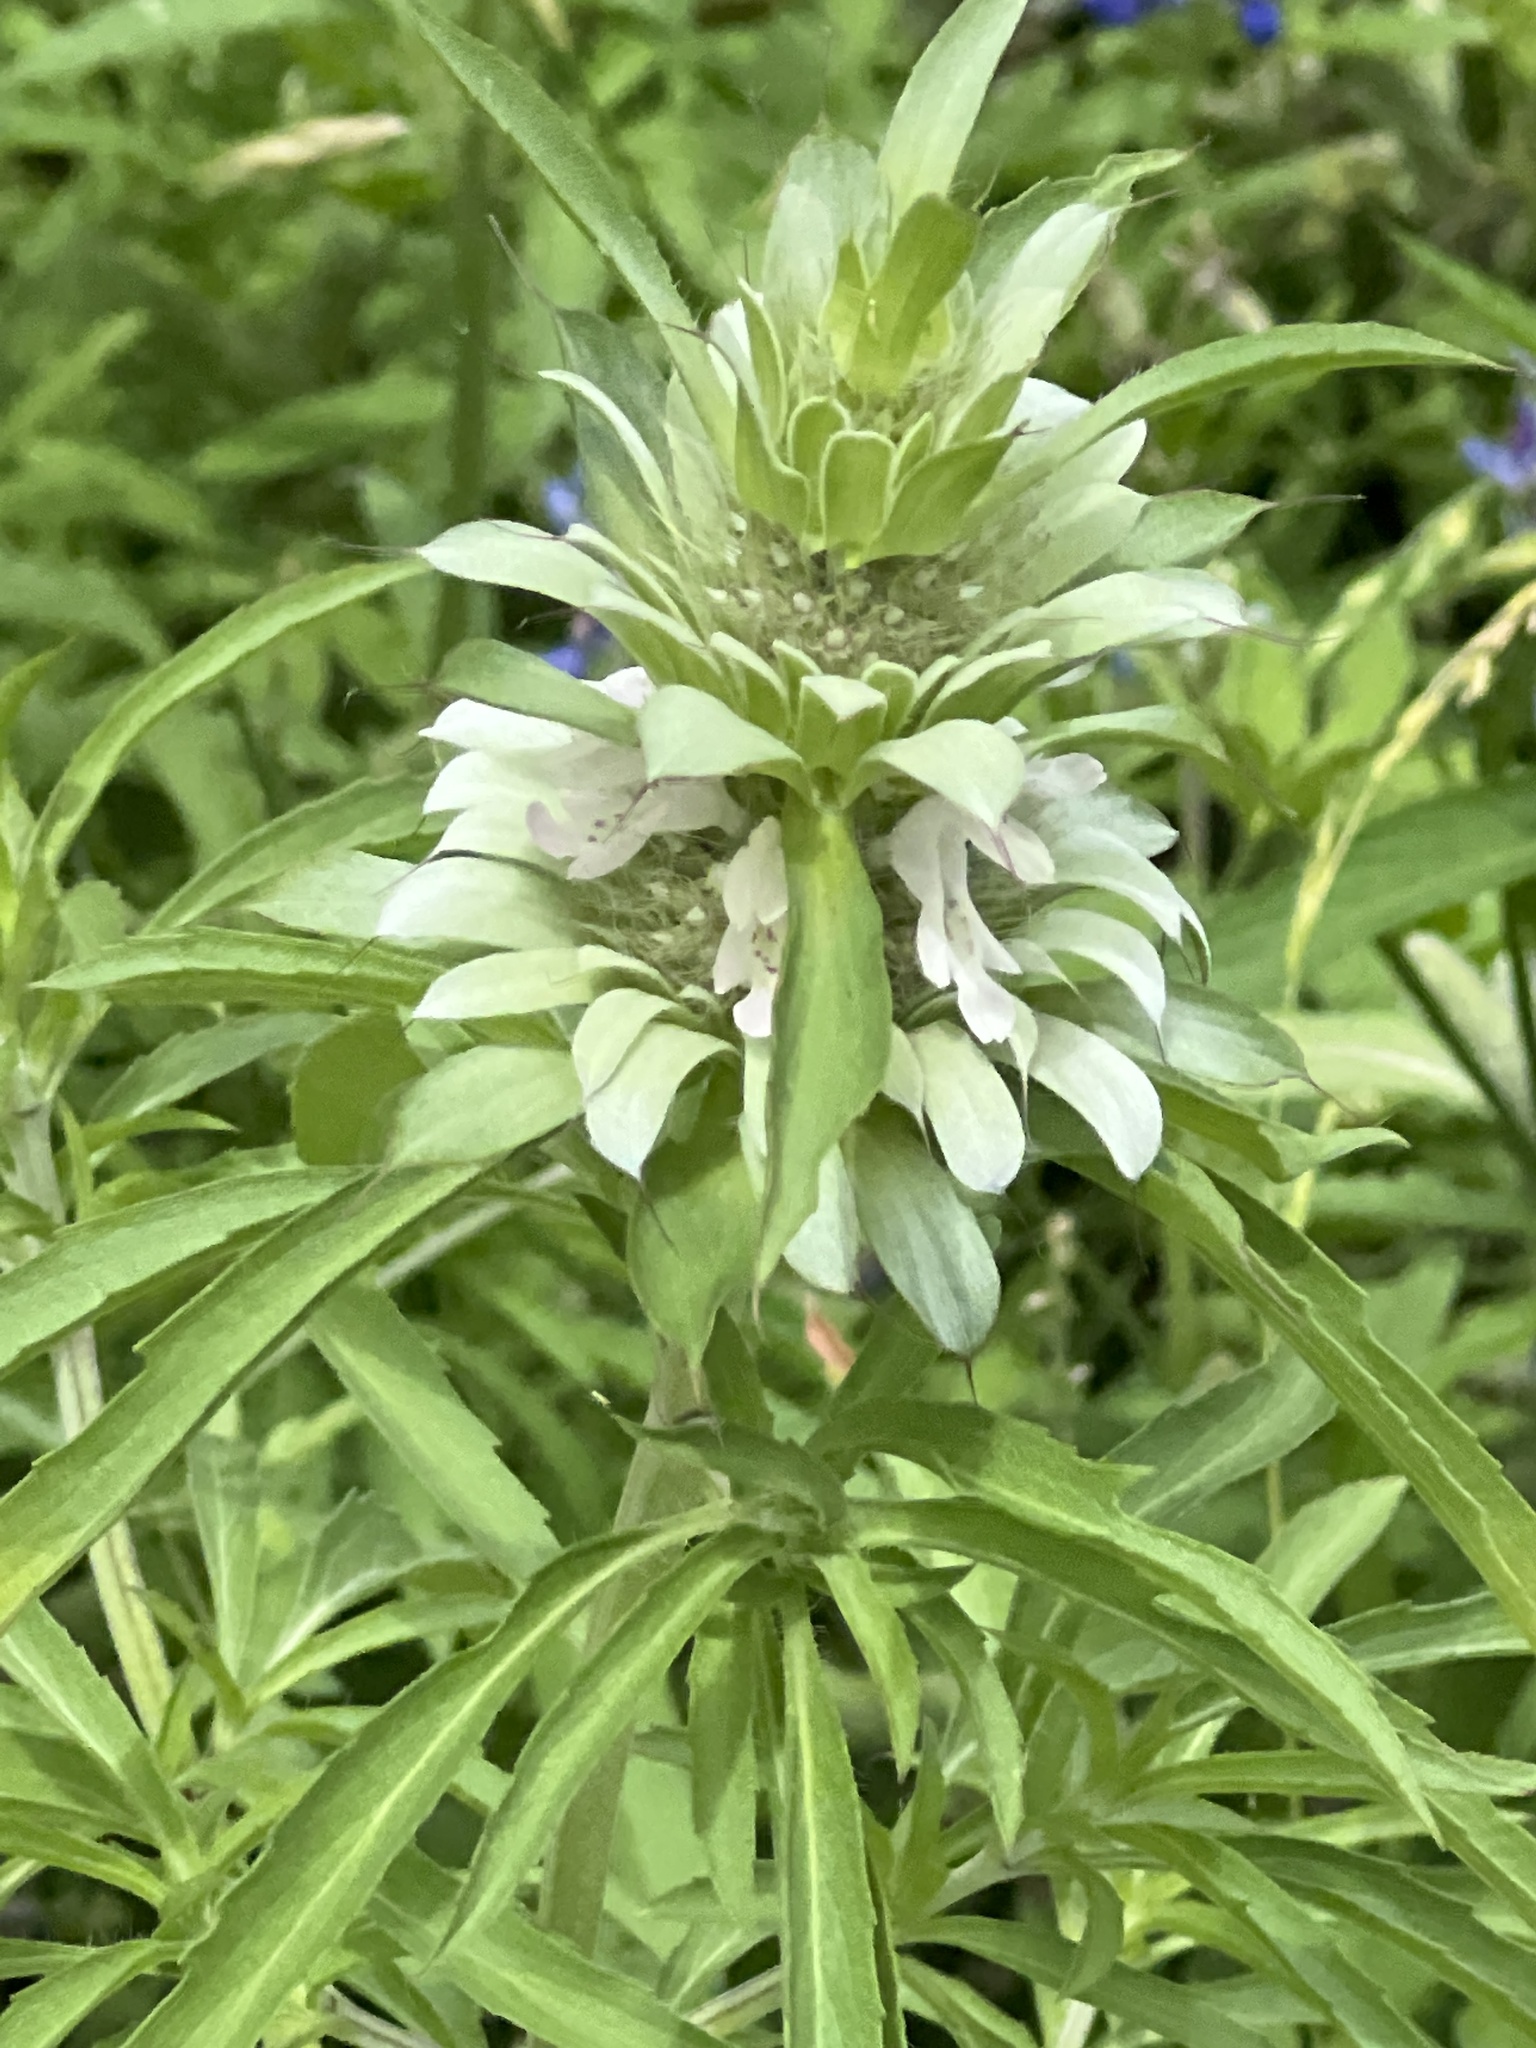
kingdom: Plantae
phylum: Tracheophyta
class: Magnoliopsida
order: Lamiales
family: Lamiaceae
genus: Monarda
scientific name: Monarda citriodora
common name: Lemon beebalm
